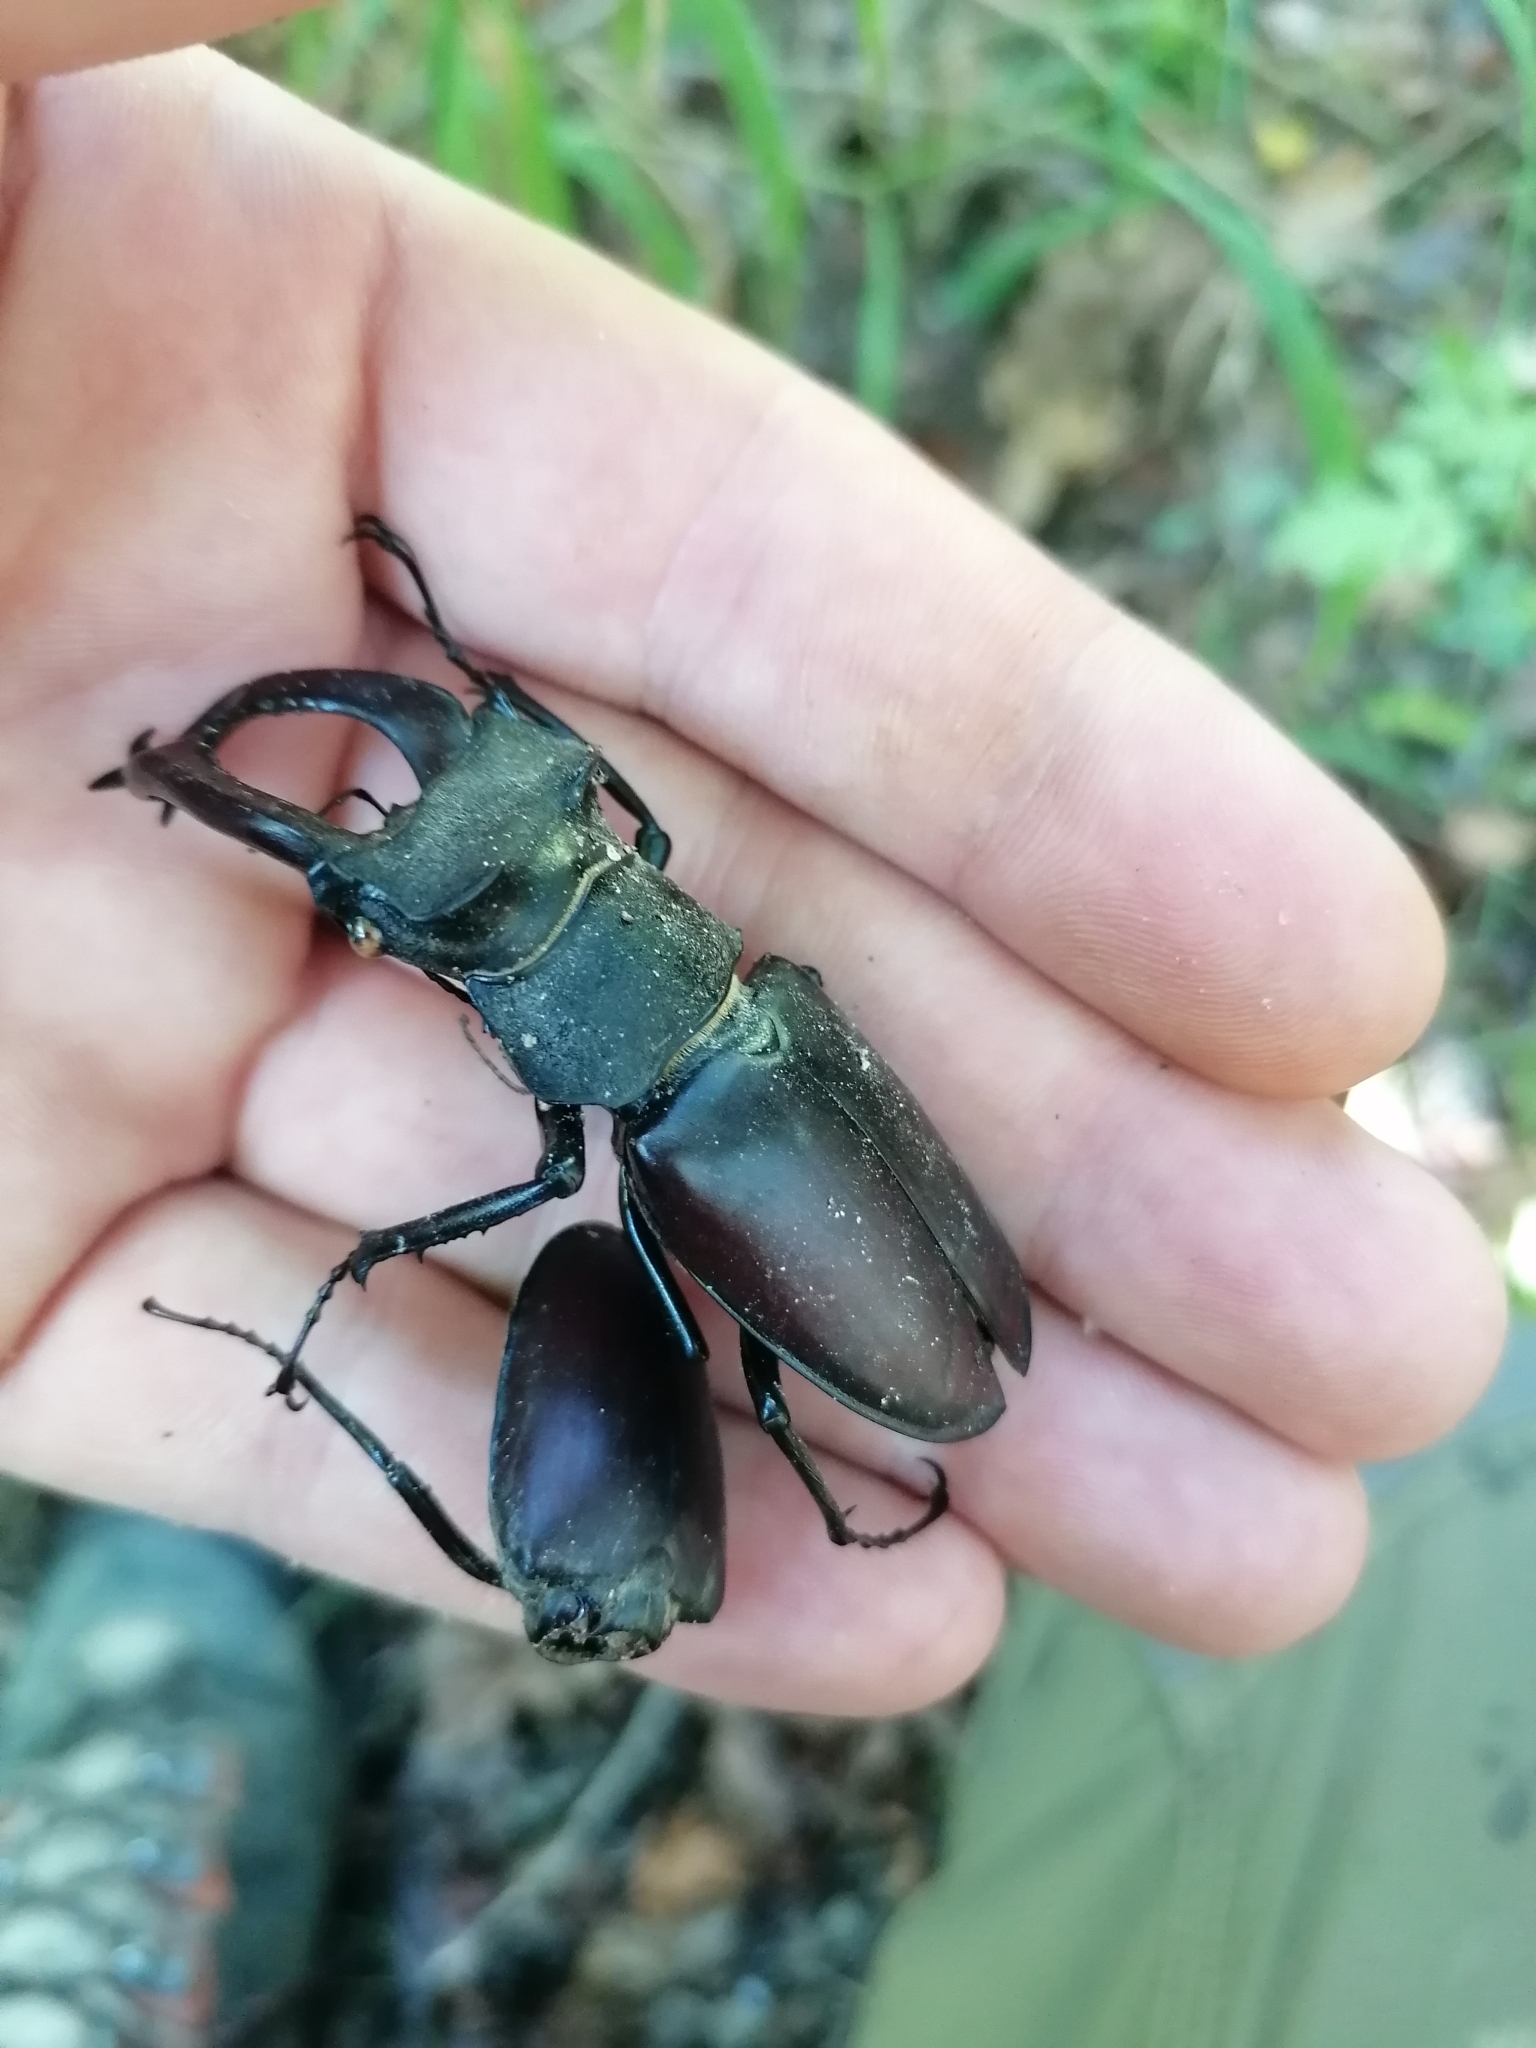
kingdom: Animalia
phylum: Arthropoda
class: Insecta
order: Coleoptera
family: Lucanidae
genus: Lucanus
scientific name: Lucanus cervus
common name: Stag beetle
